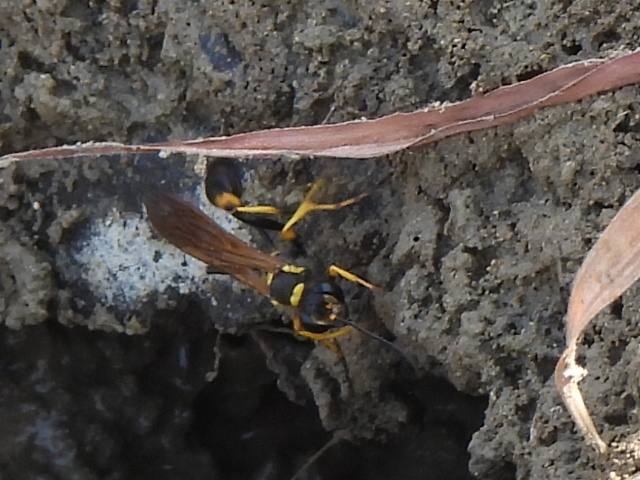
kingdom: Animalia
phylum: Arthropoda
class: Insecta
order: Hymenoptera
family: Sphecidae
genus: Sceliphron
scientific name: Sceliphron caementarium
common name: Mud dauber
